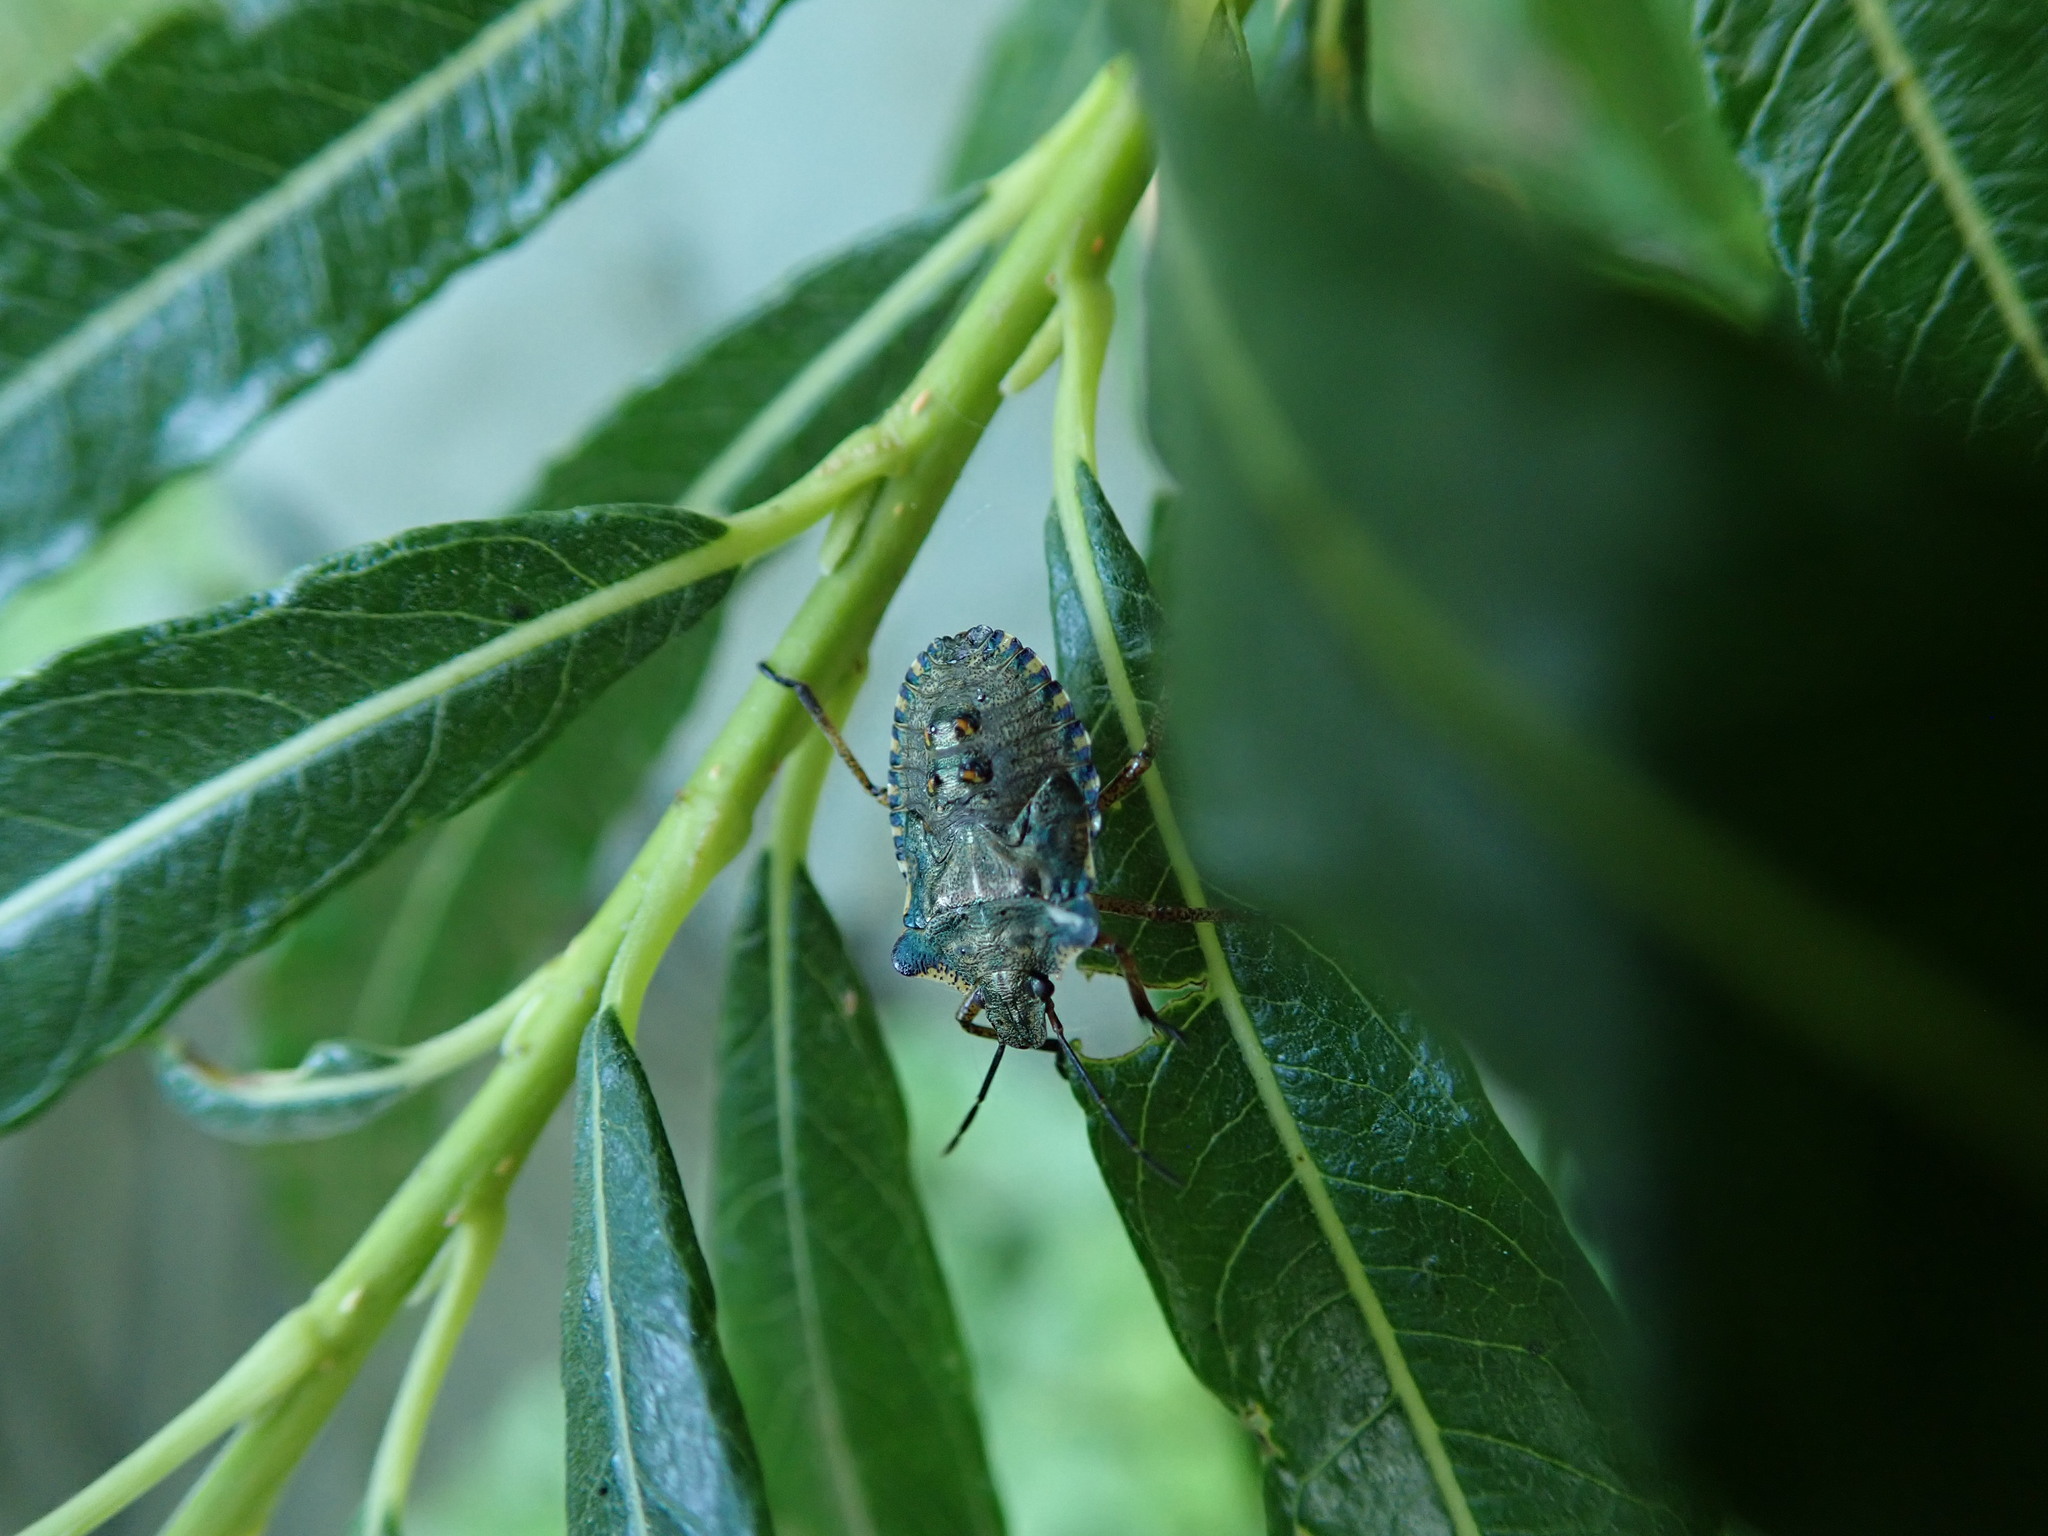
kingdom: Animalia
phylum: Arthropoda
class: Insecta
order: Hemiptera
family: Pentatomidae
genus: Pentatoma
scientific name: Pentatoma rufipes
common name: Forest bug
